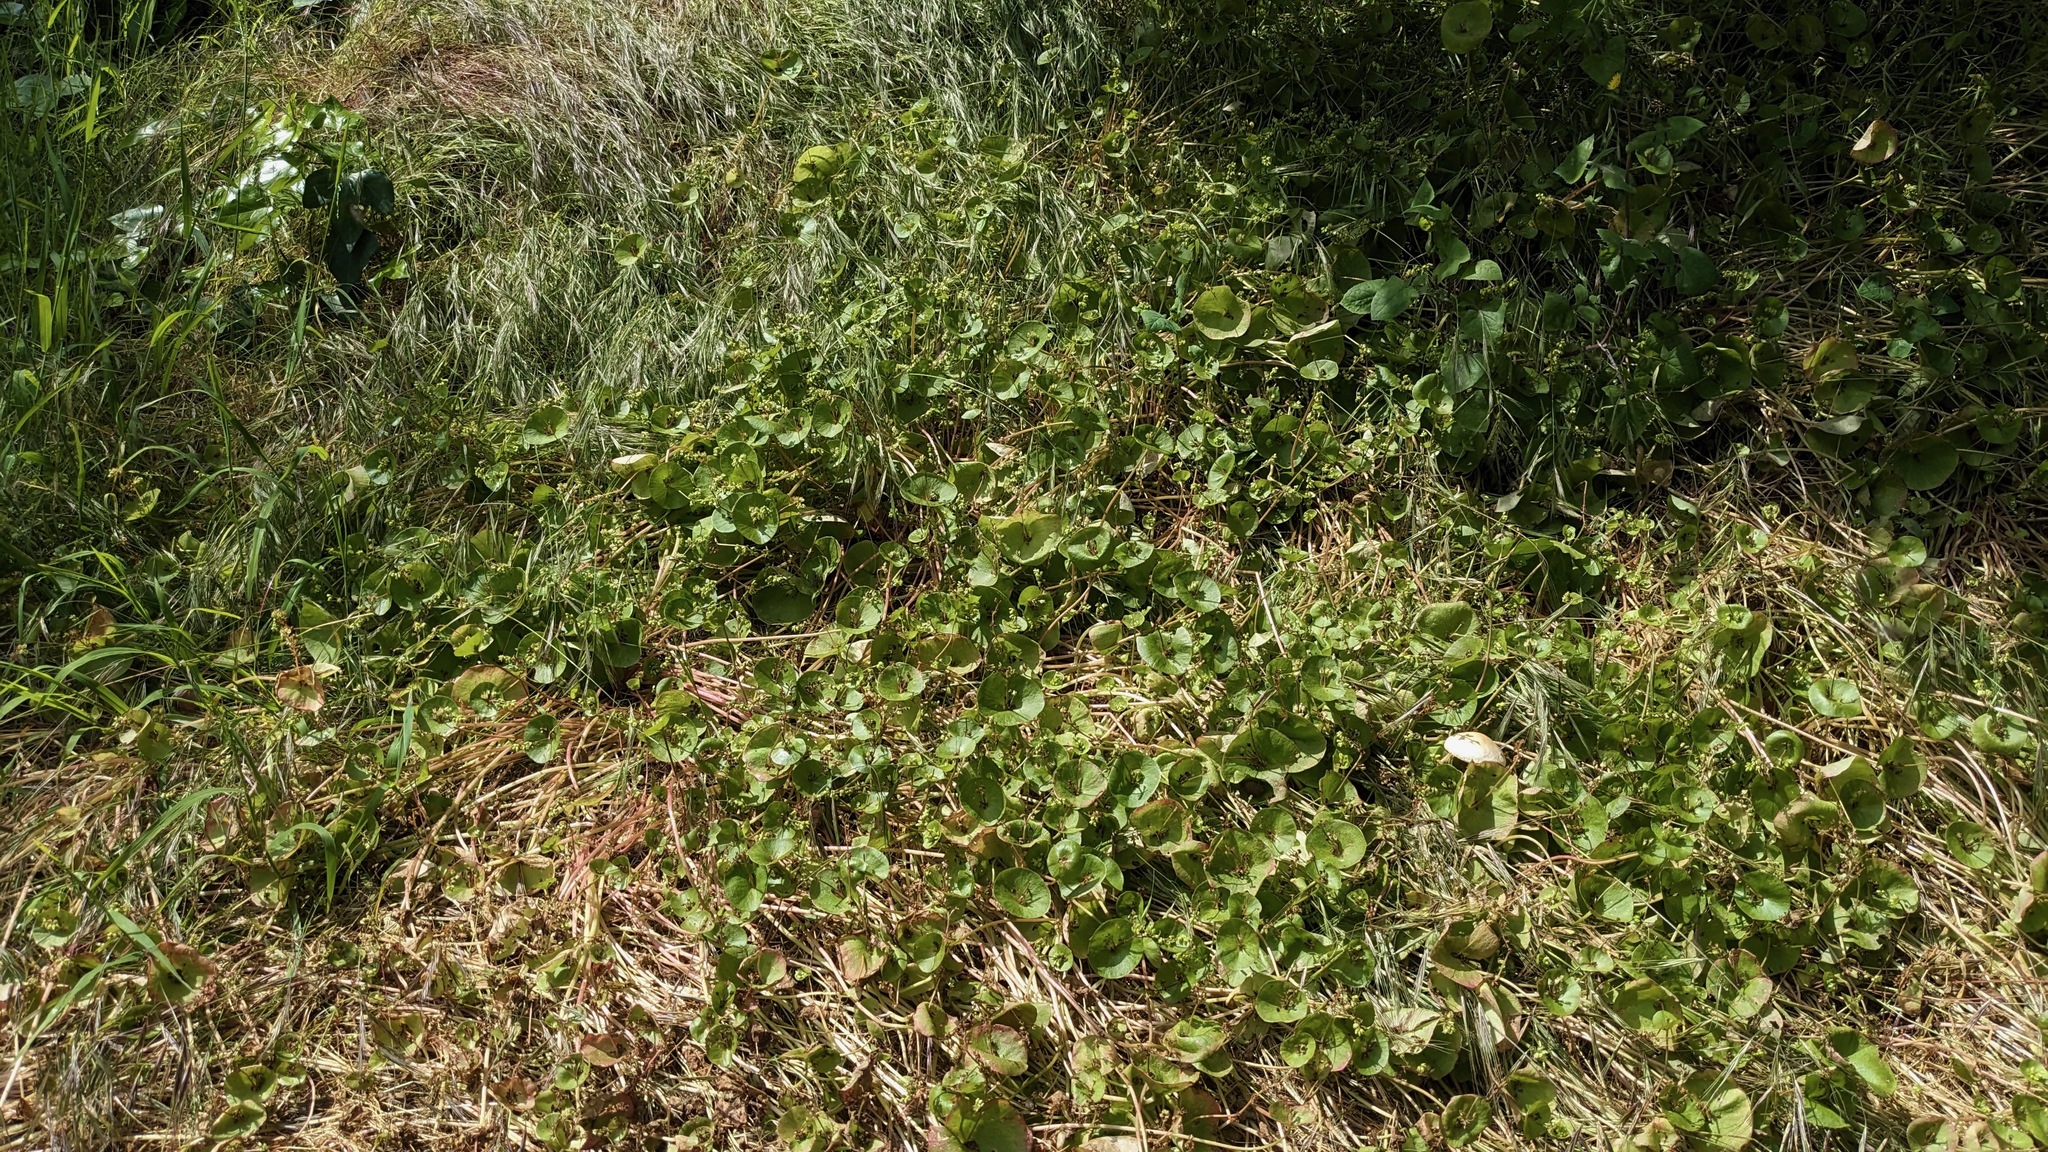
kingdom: Plantae
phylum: Tracheophyta
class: Magnoliopsida
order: Caryophyllales
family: Montiaceae
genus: Claytonia
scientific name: Claytonia perfoliata
